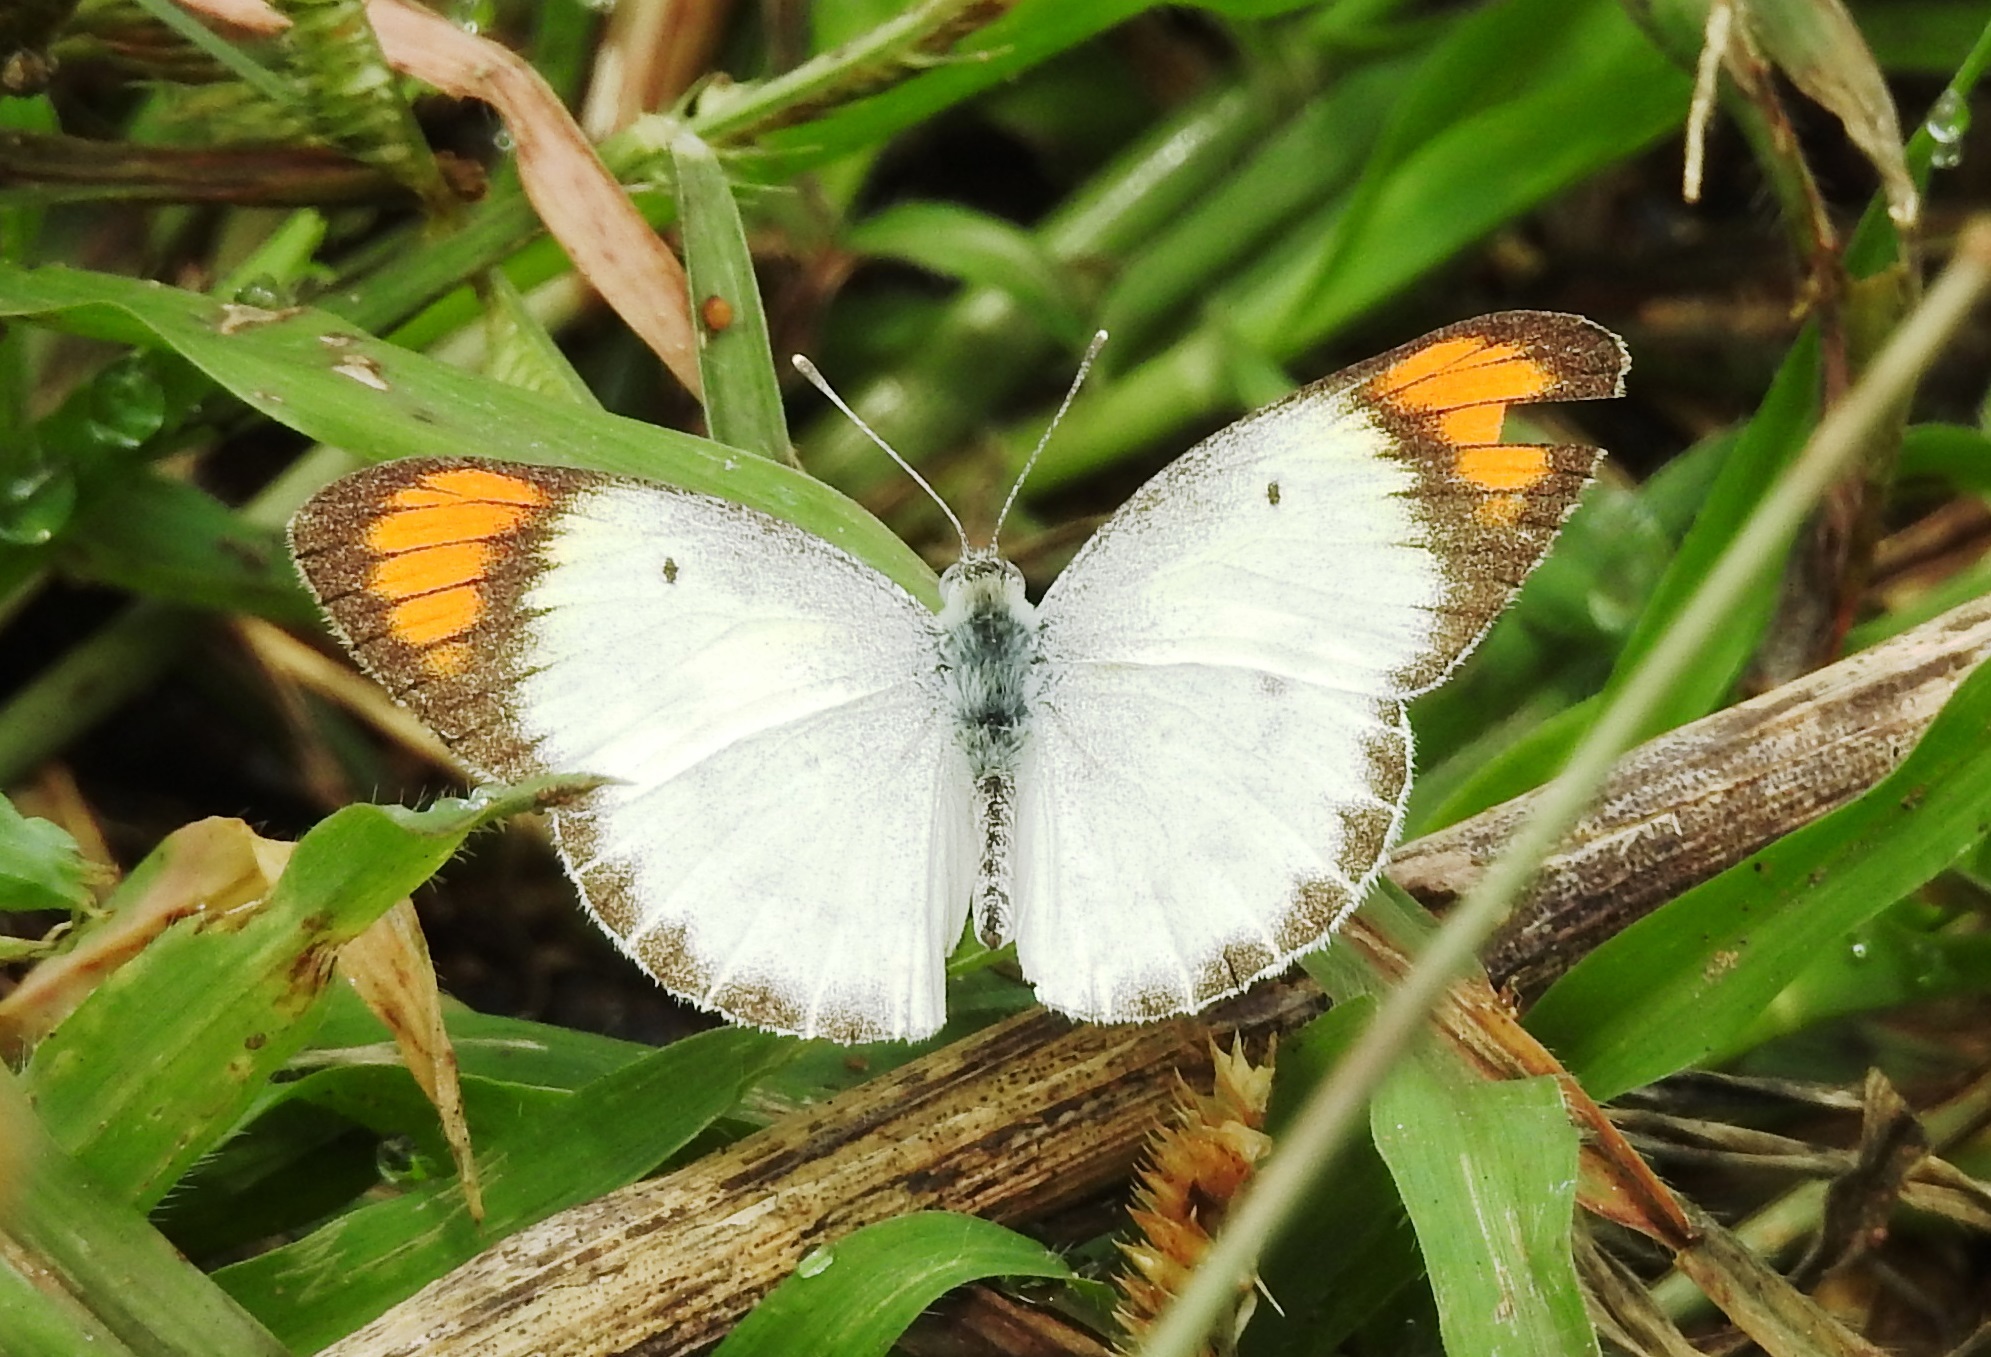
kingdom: Animalia
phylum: Arthropoda
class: Insecta
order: Lepidoptera
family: Pieridae
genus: Colotis
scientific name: Colotis etrida
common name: Little orange tip
